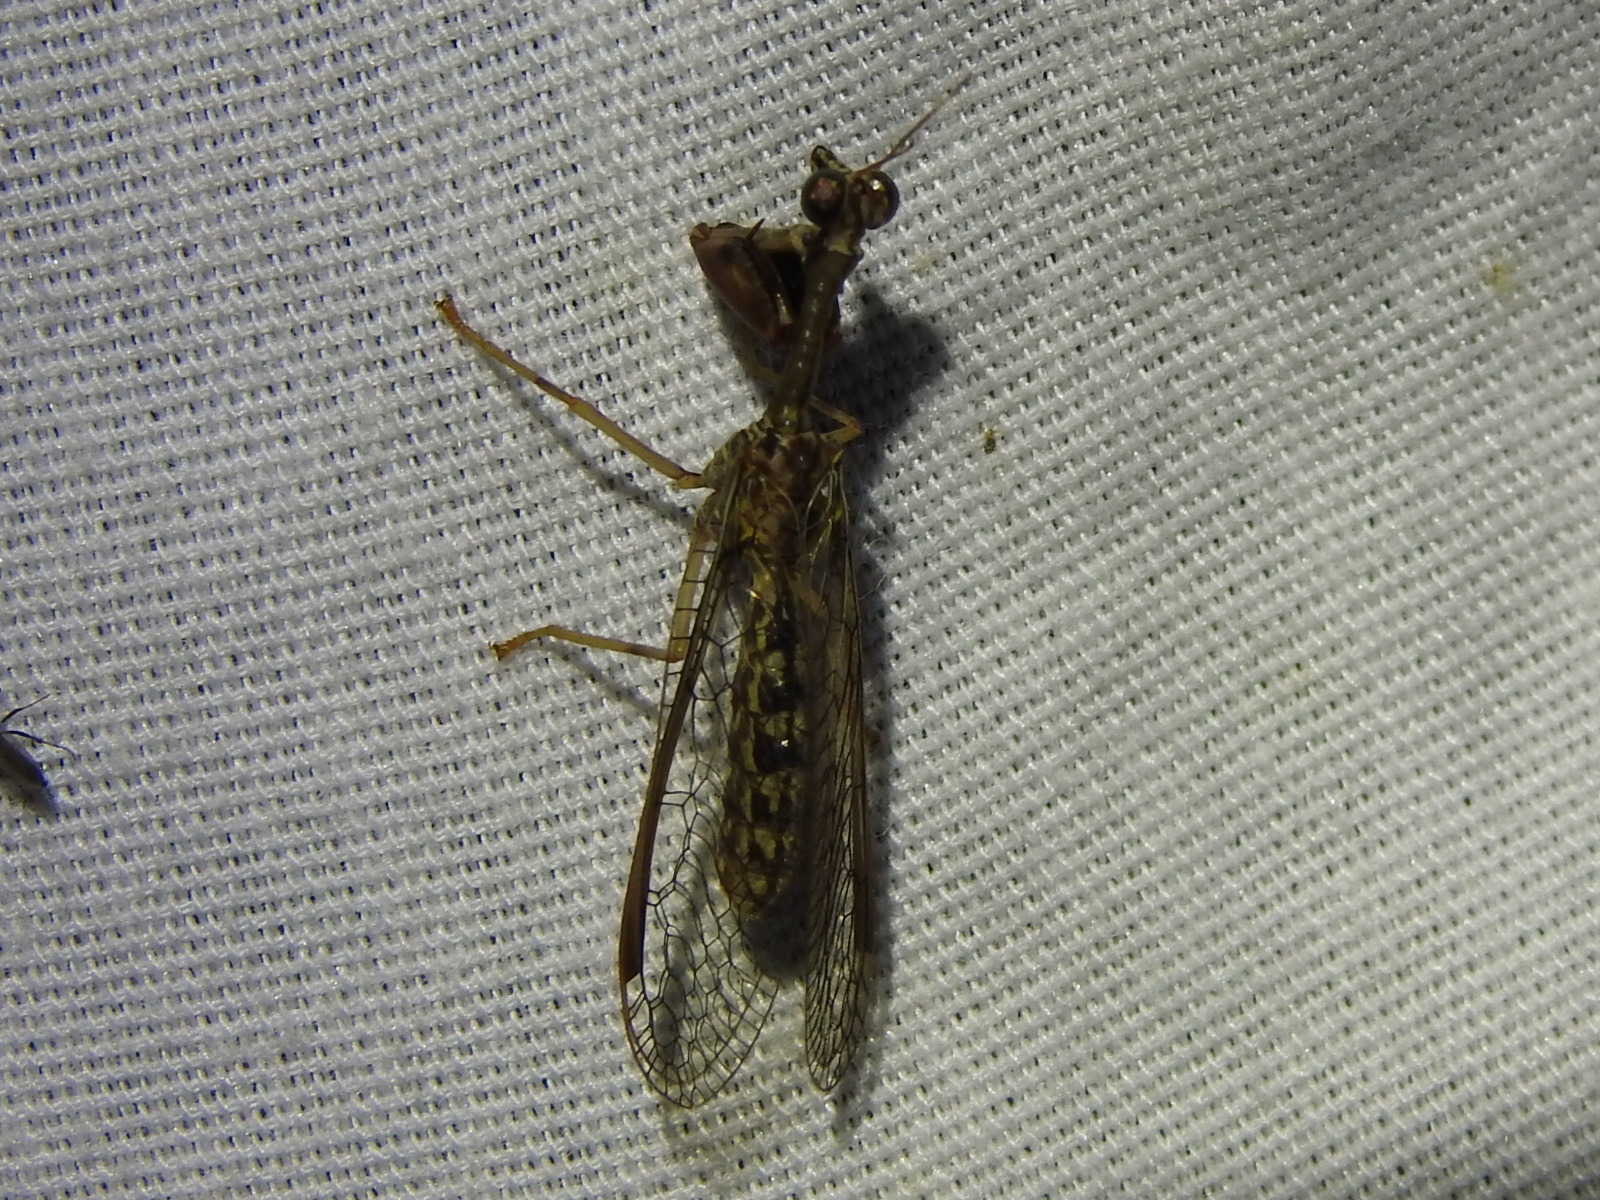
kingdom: Animalia
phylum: Arthropoda
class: Insecta
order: Neuroptera
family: Mantispidae
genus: Dicromantispa
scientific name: Dicromantispa sayi
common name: Say's mantidfly
